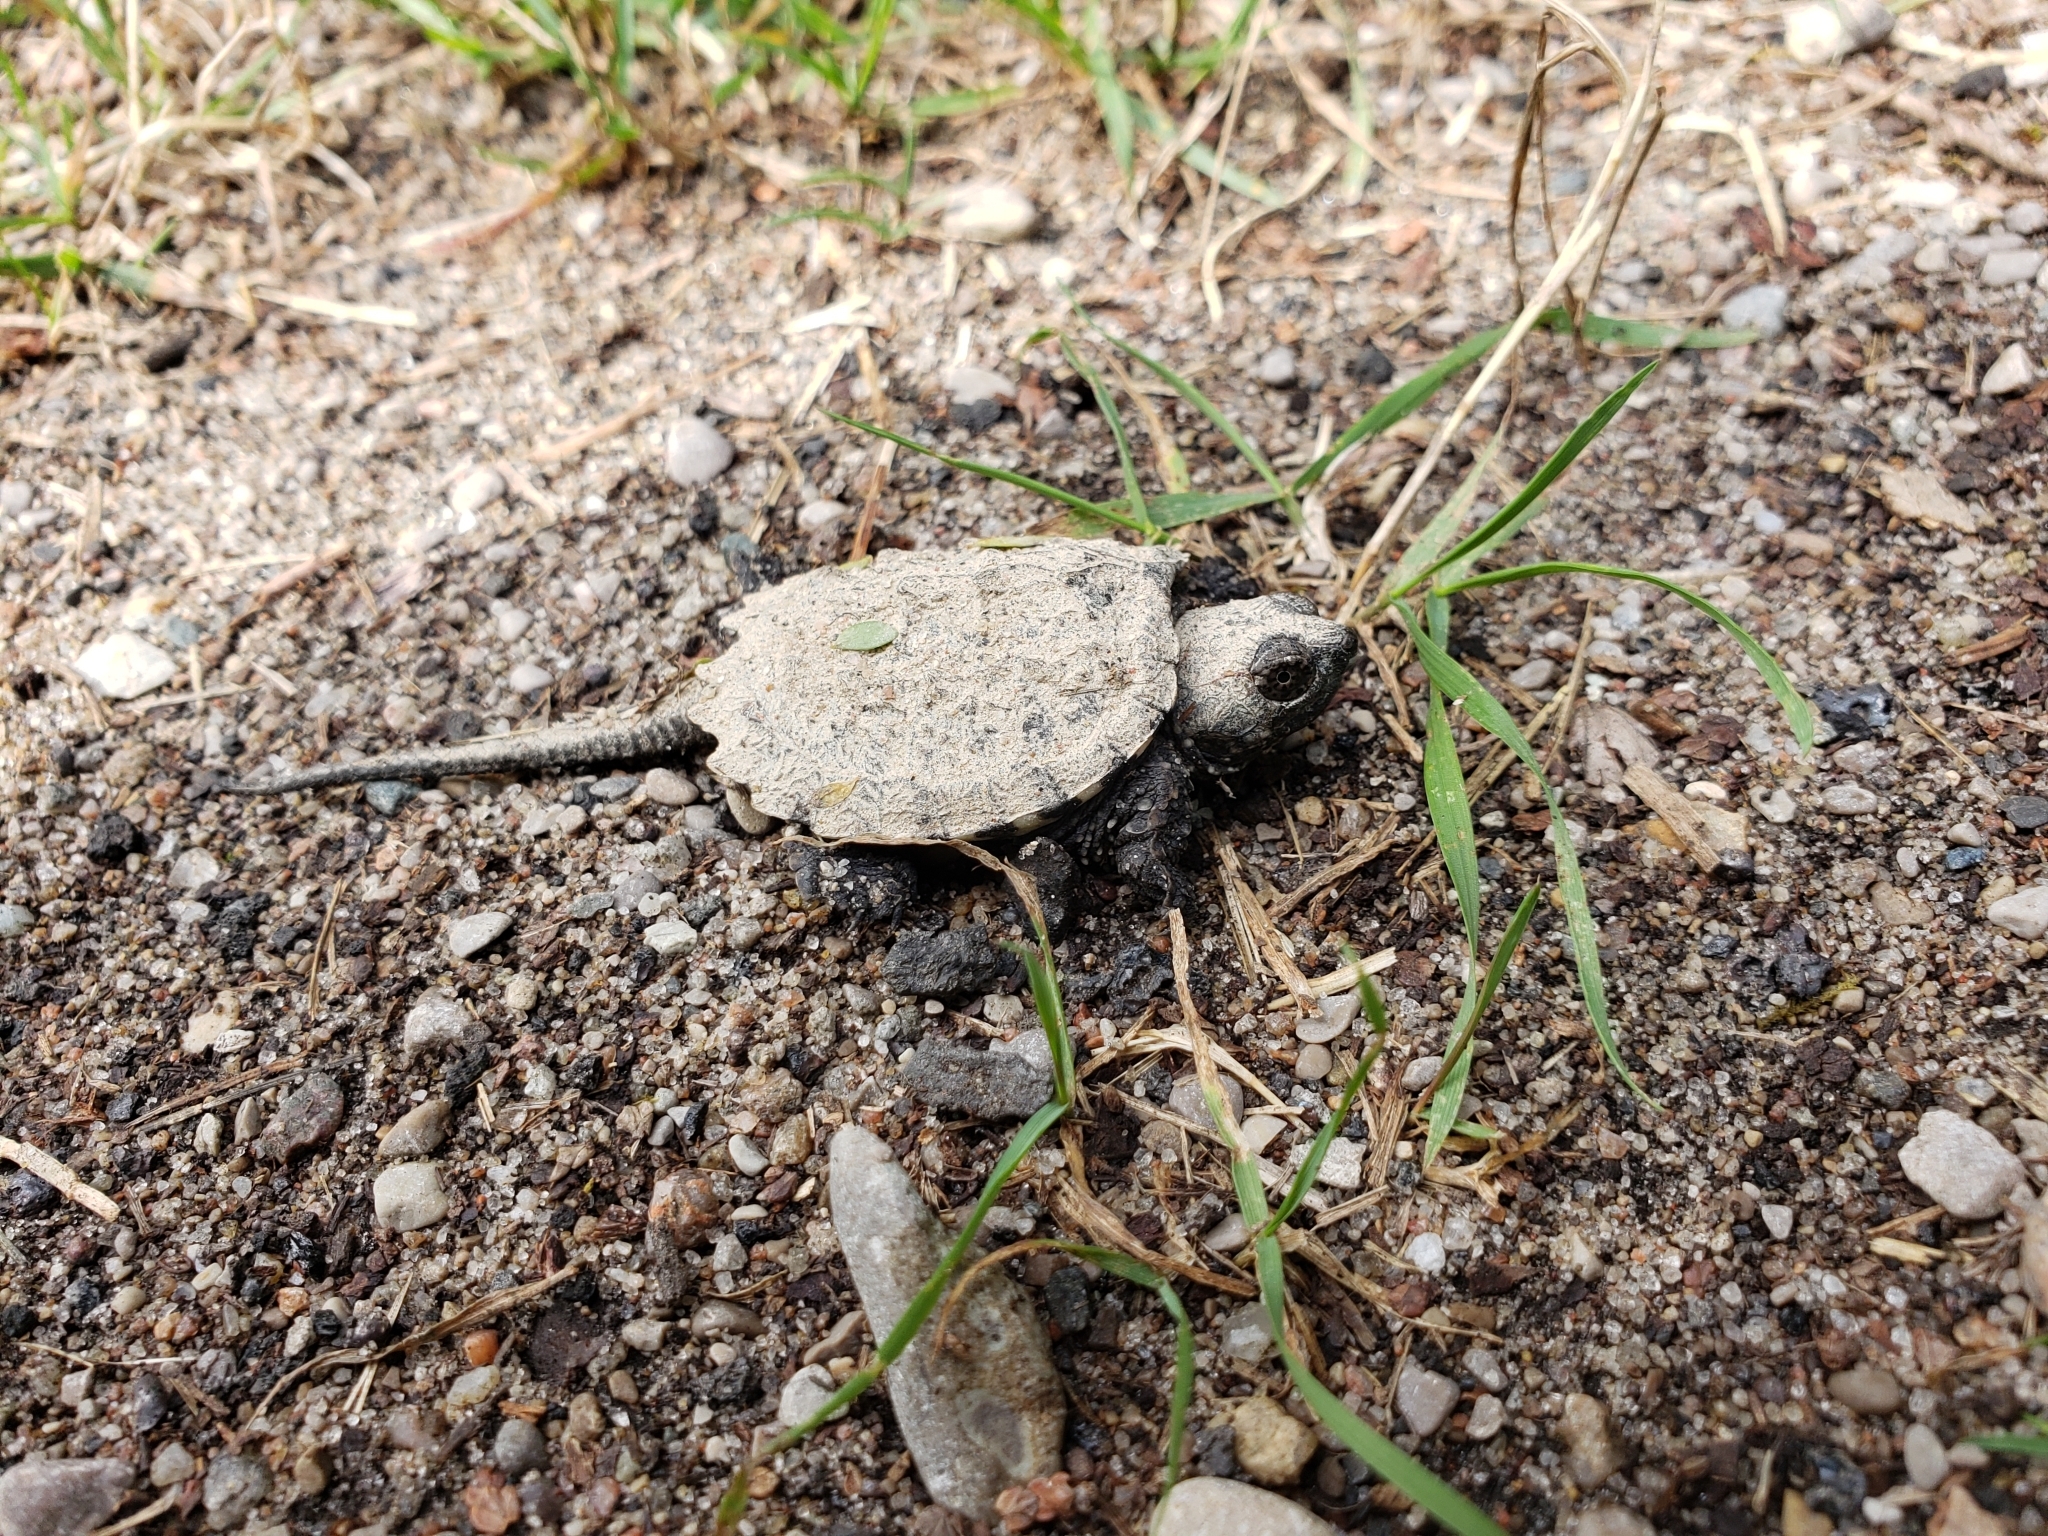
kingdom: Animalia
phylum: Chordata
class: Testudines
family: Chelydridae
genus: Chelydra
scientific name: Chelydra serpentina
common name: Common snapping turtle
